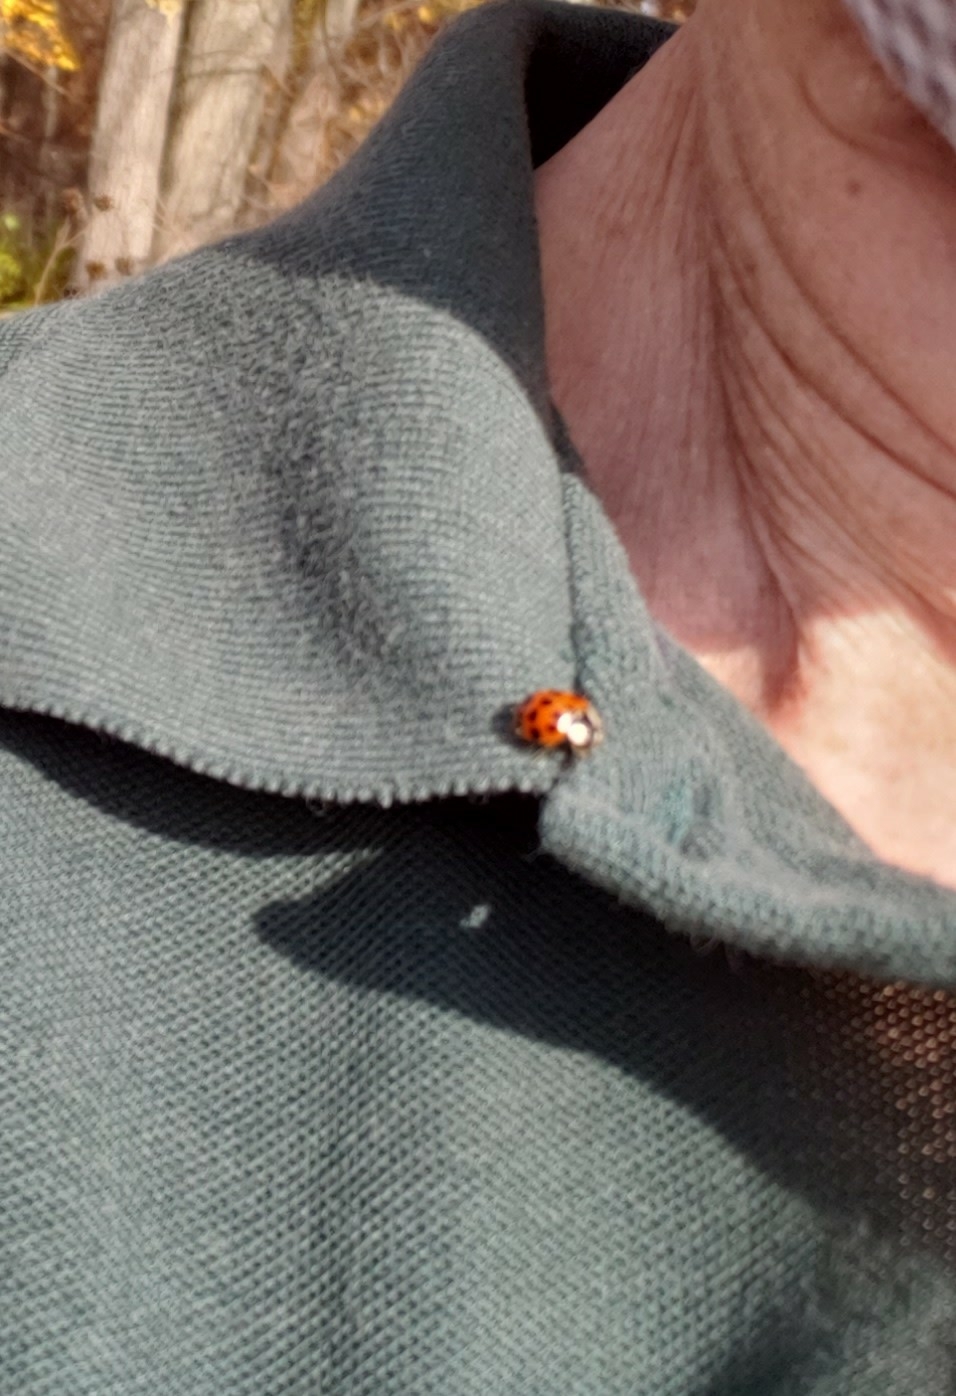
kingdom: Animalia
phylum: Arthropoda
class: Insecta
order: Coleoptera
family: Coccinellidae
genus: Harmonia
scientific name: Harmonia axyridis
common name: Harlequin ladybird
